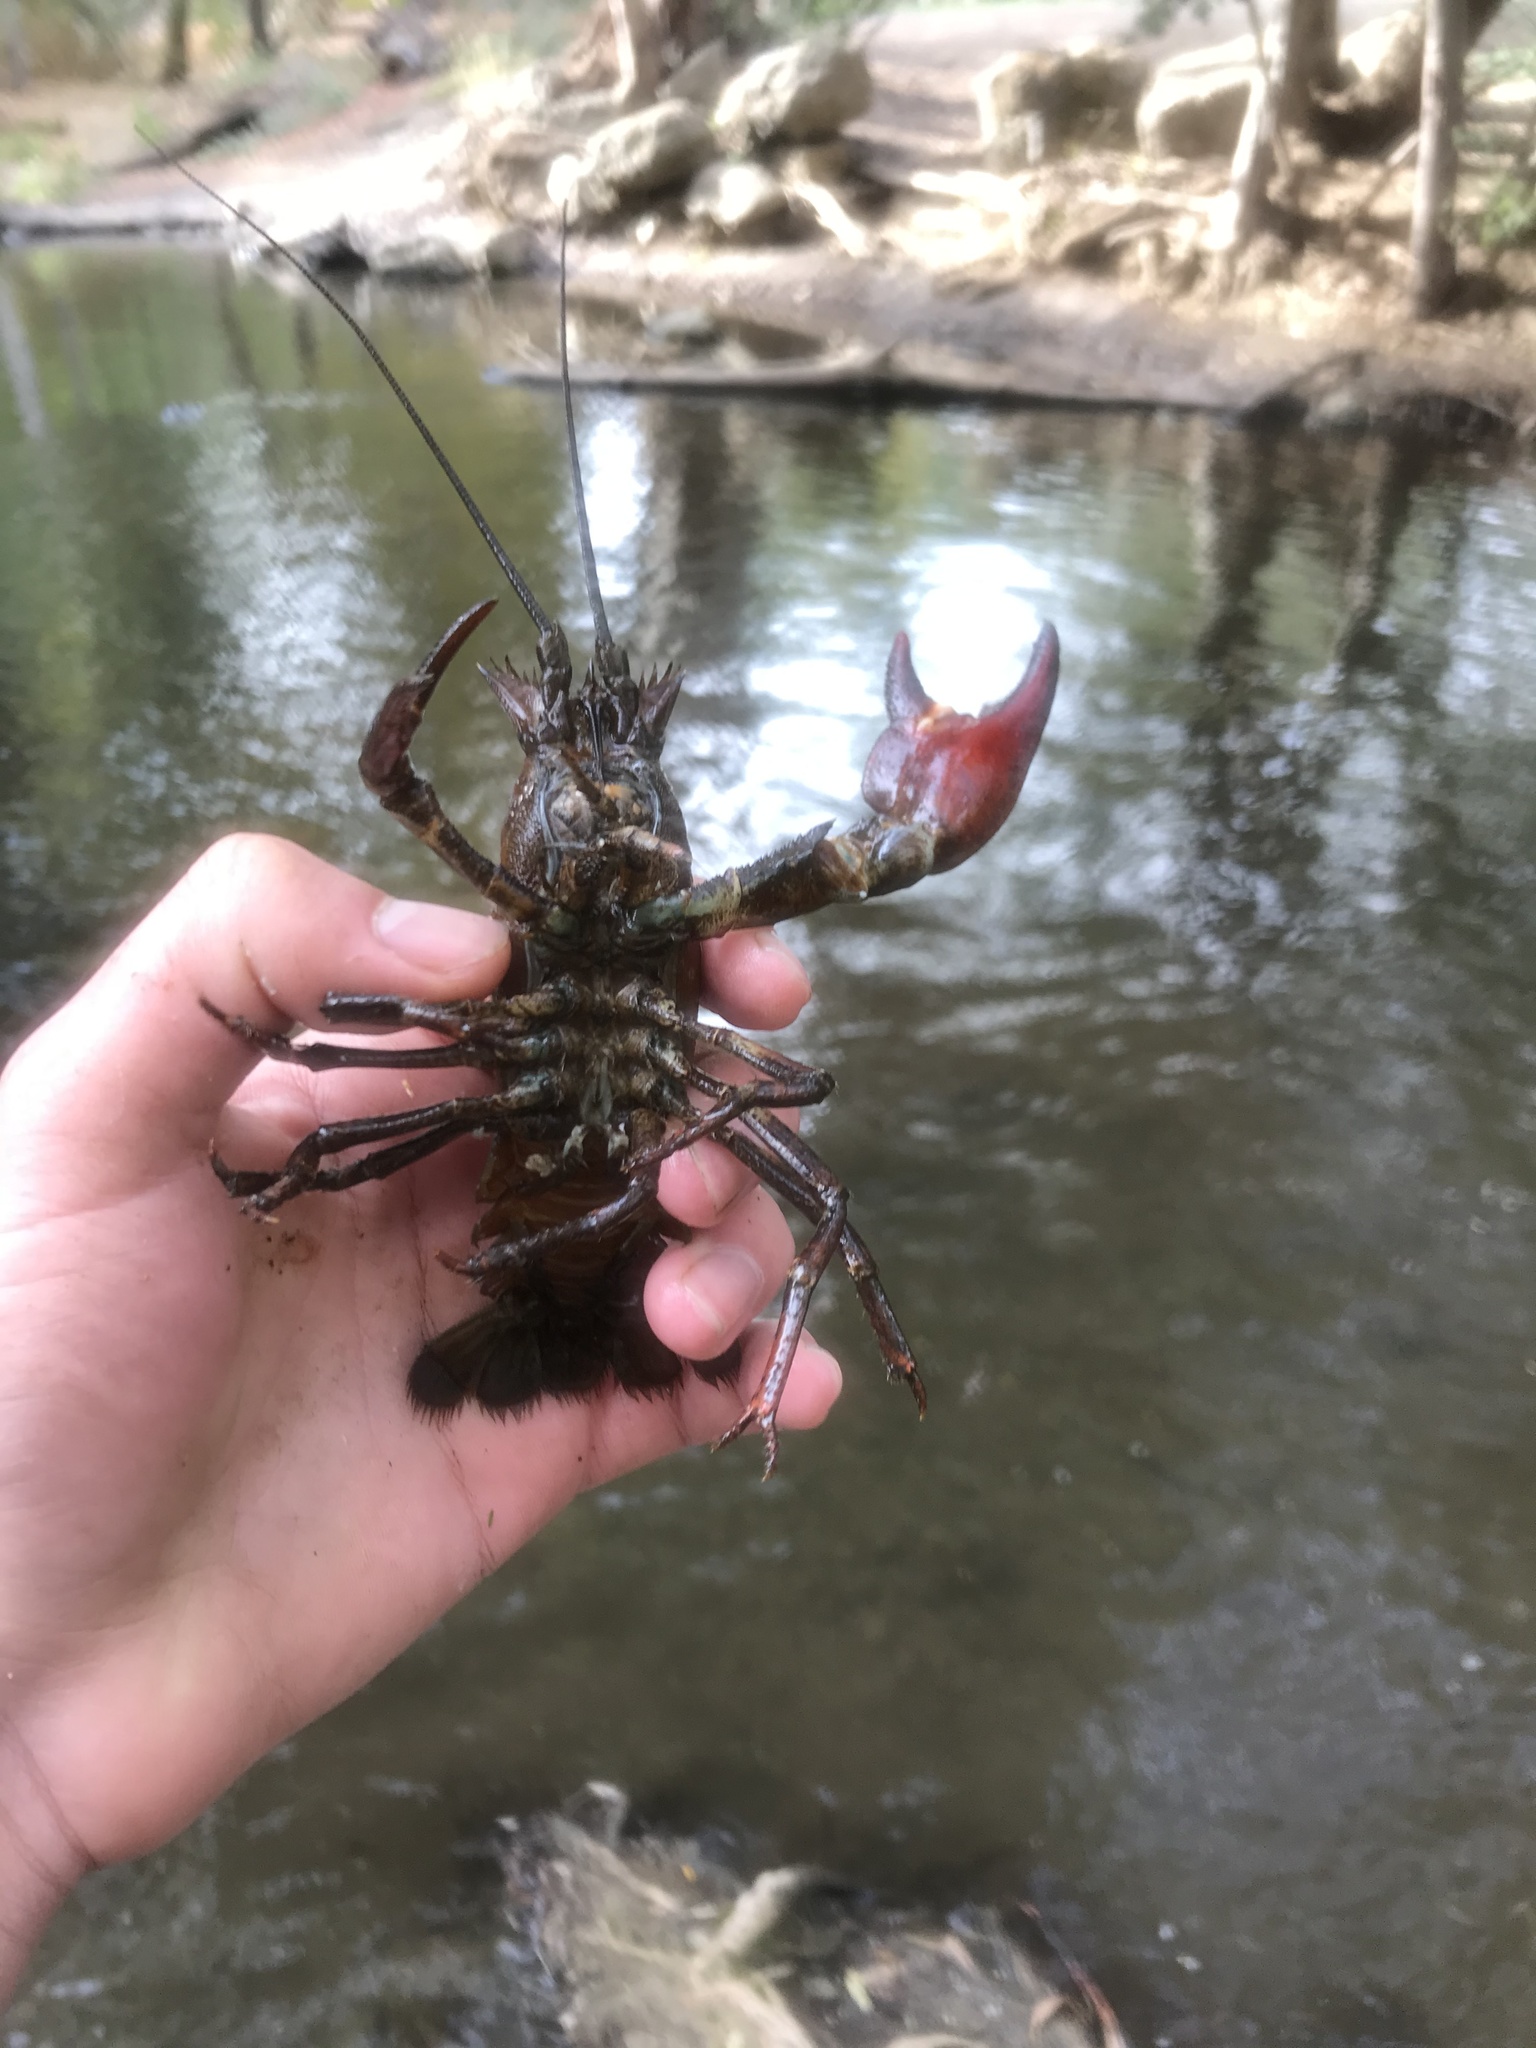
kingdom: Animalia
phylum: Arthropoda
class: Malacostraca
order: Decapoda
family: Astacidae
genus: Pacifastacus
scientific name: Pacifastacus leniusculus
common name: Signal crayfish
